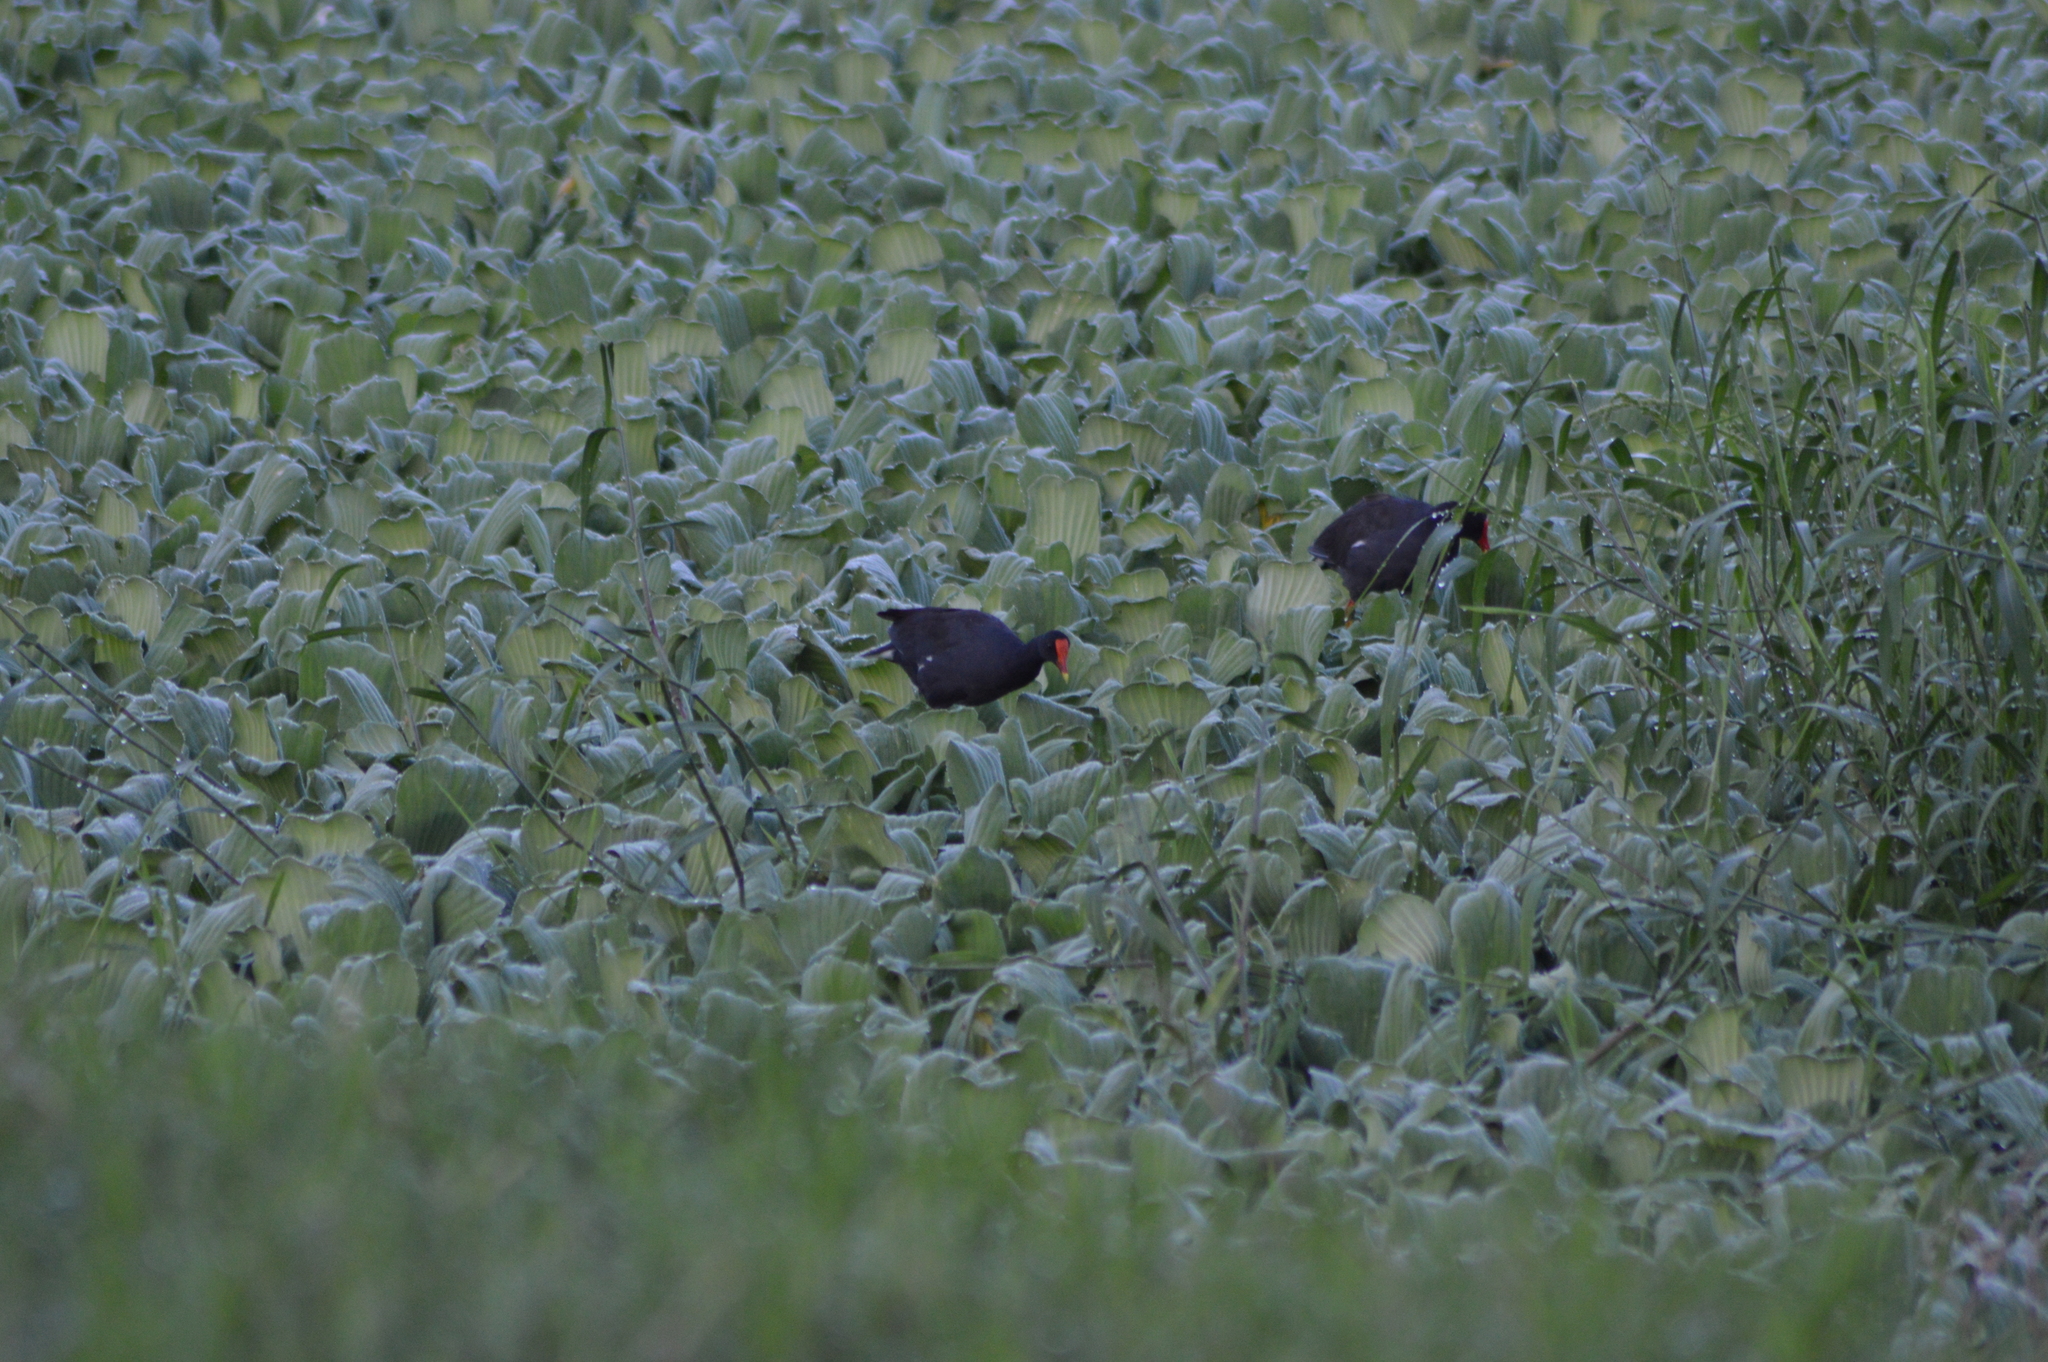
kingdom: Animalia
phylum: Chordata
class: Aves
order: Gruiformes
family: Rallidae
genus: Gallinula
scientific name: Gallinula chloropus
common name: Common moorhen
